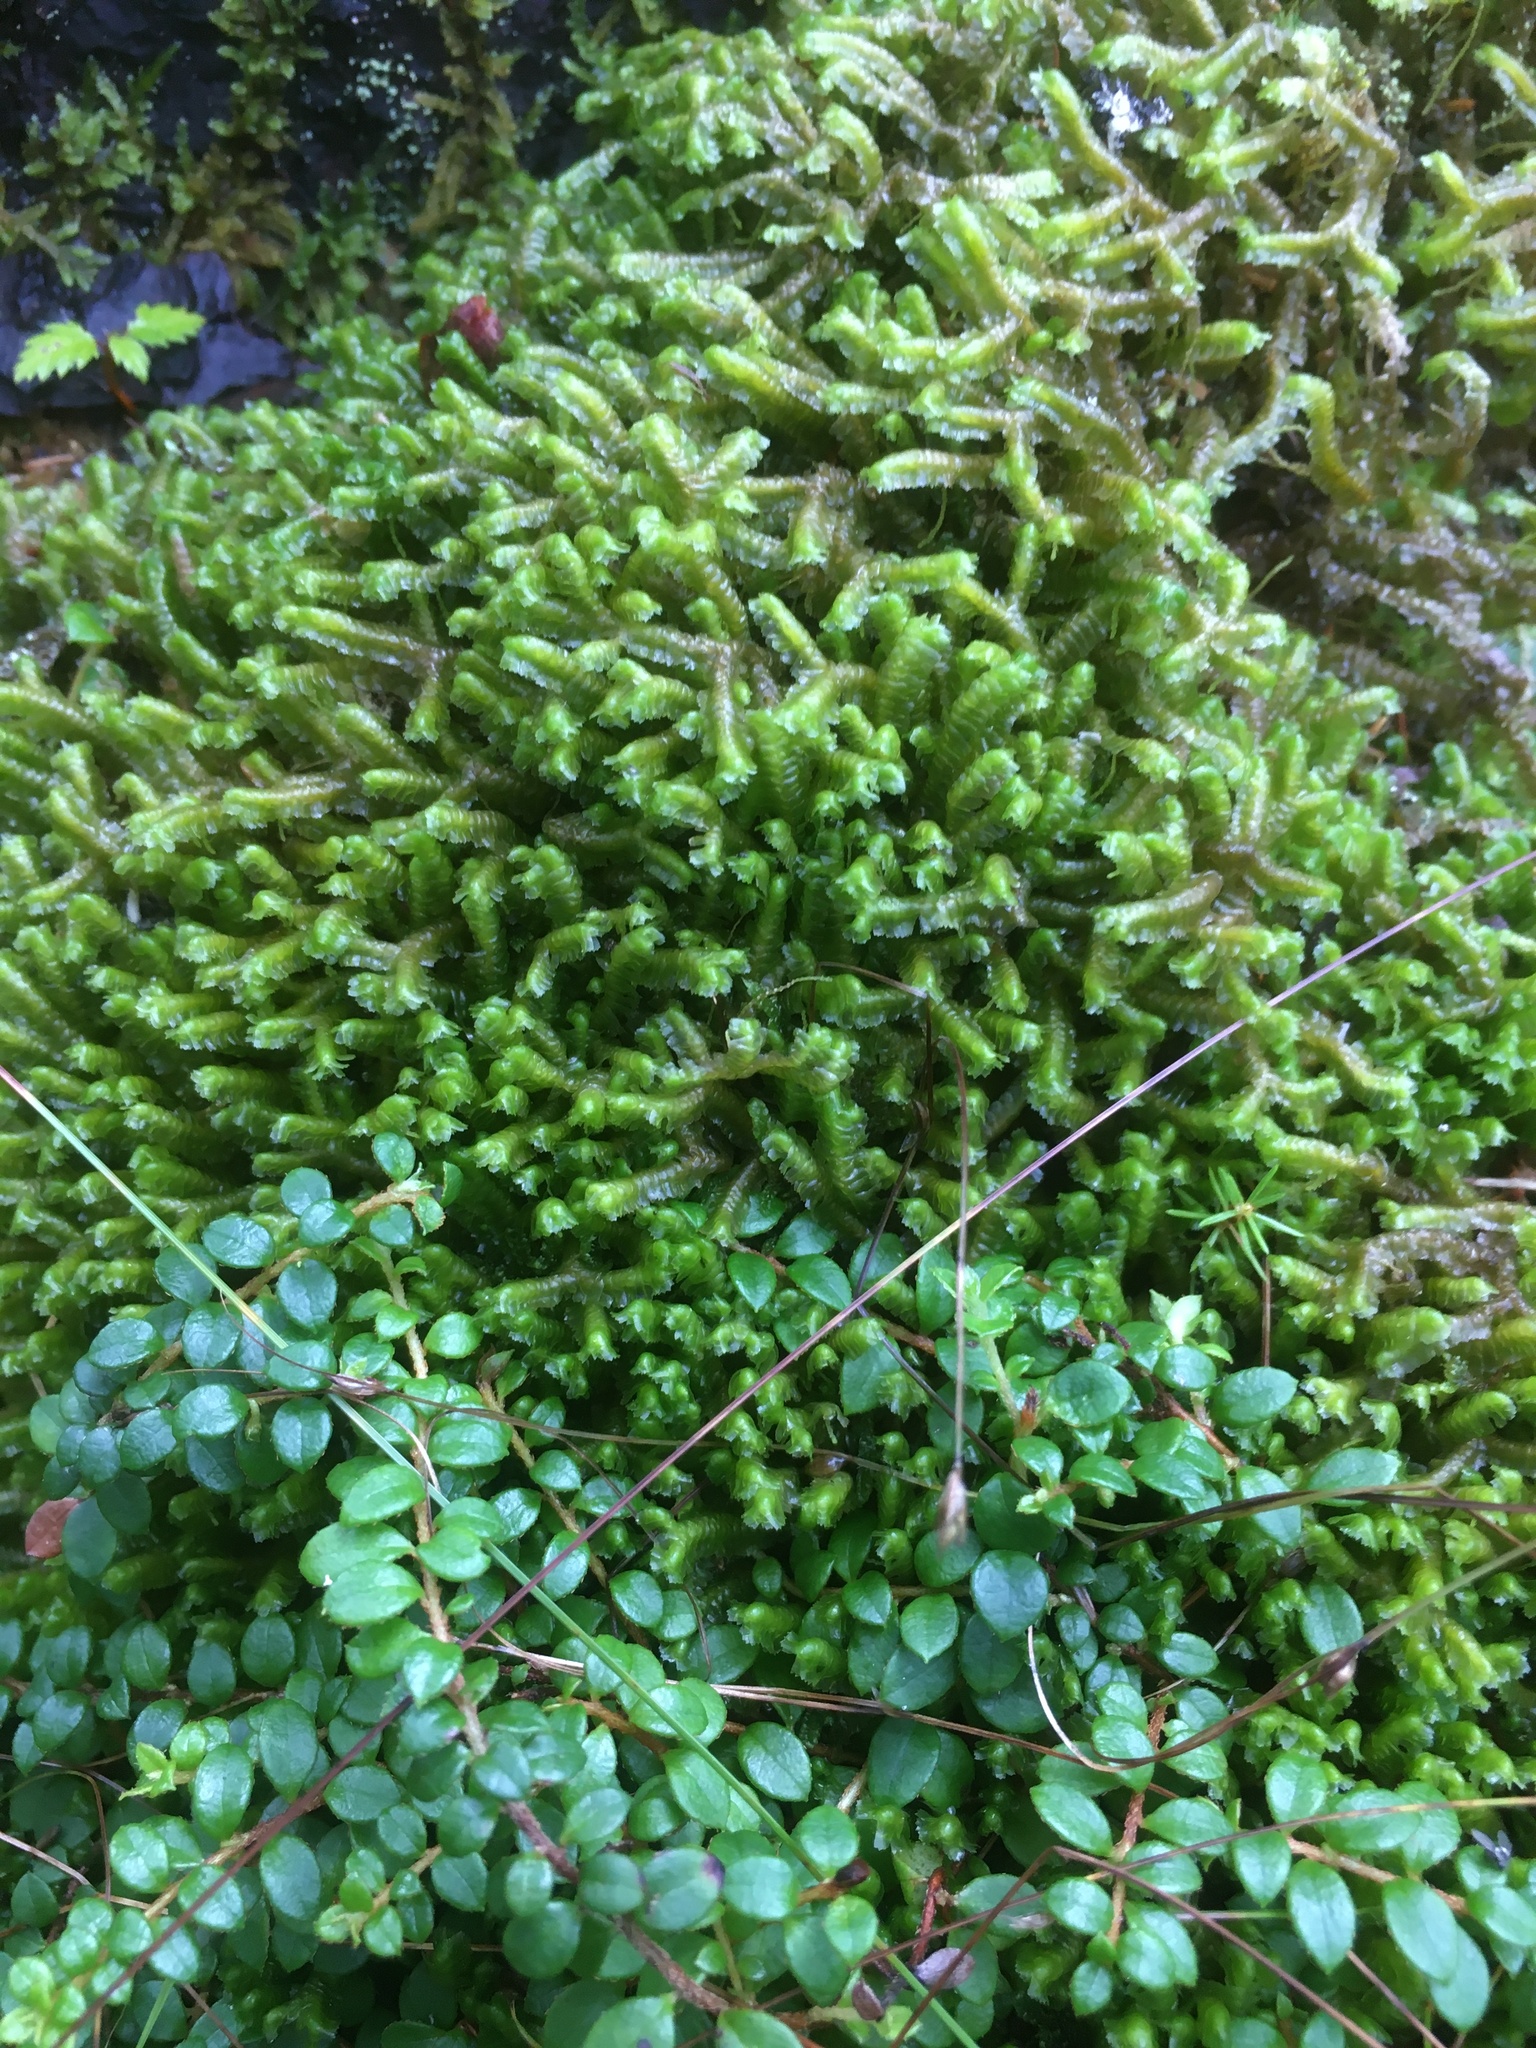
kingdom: Plantae
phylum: Marchantiophyta
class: Jungermanniopsida
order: Jungermanniales
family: Lepidoziaceae
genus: Bazzania
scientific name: Bazzania trilobata
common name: Three-lobed whipwort
